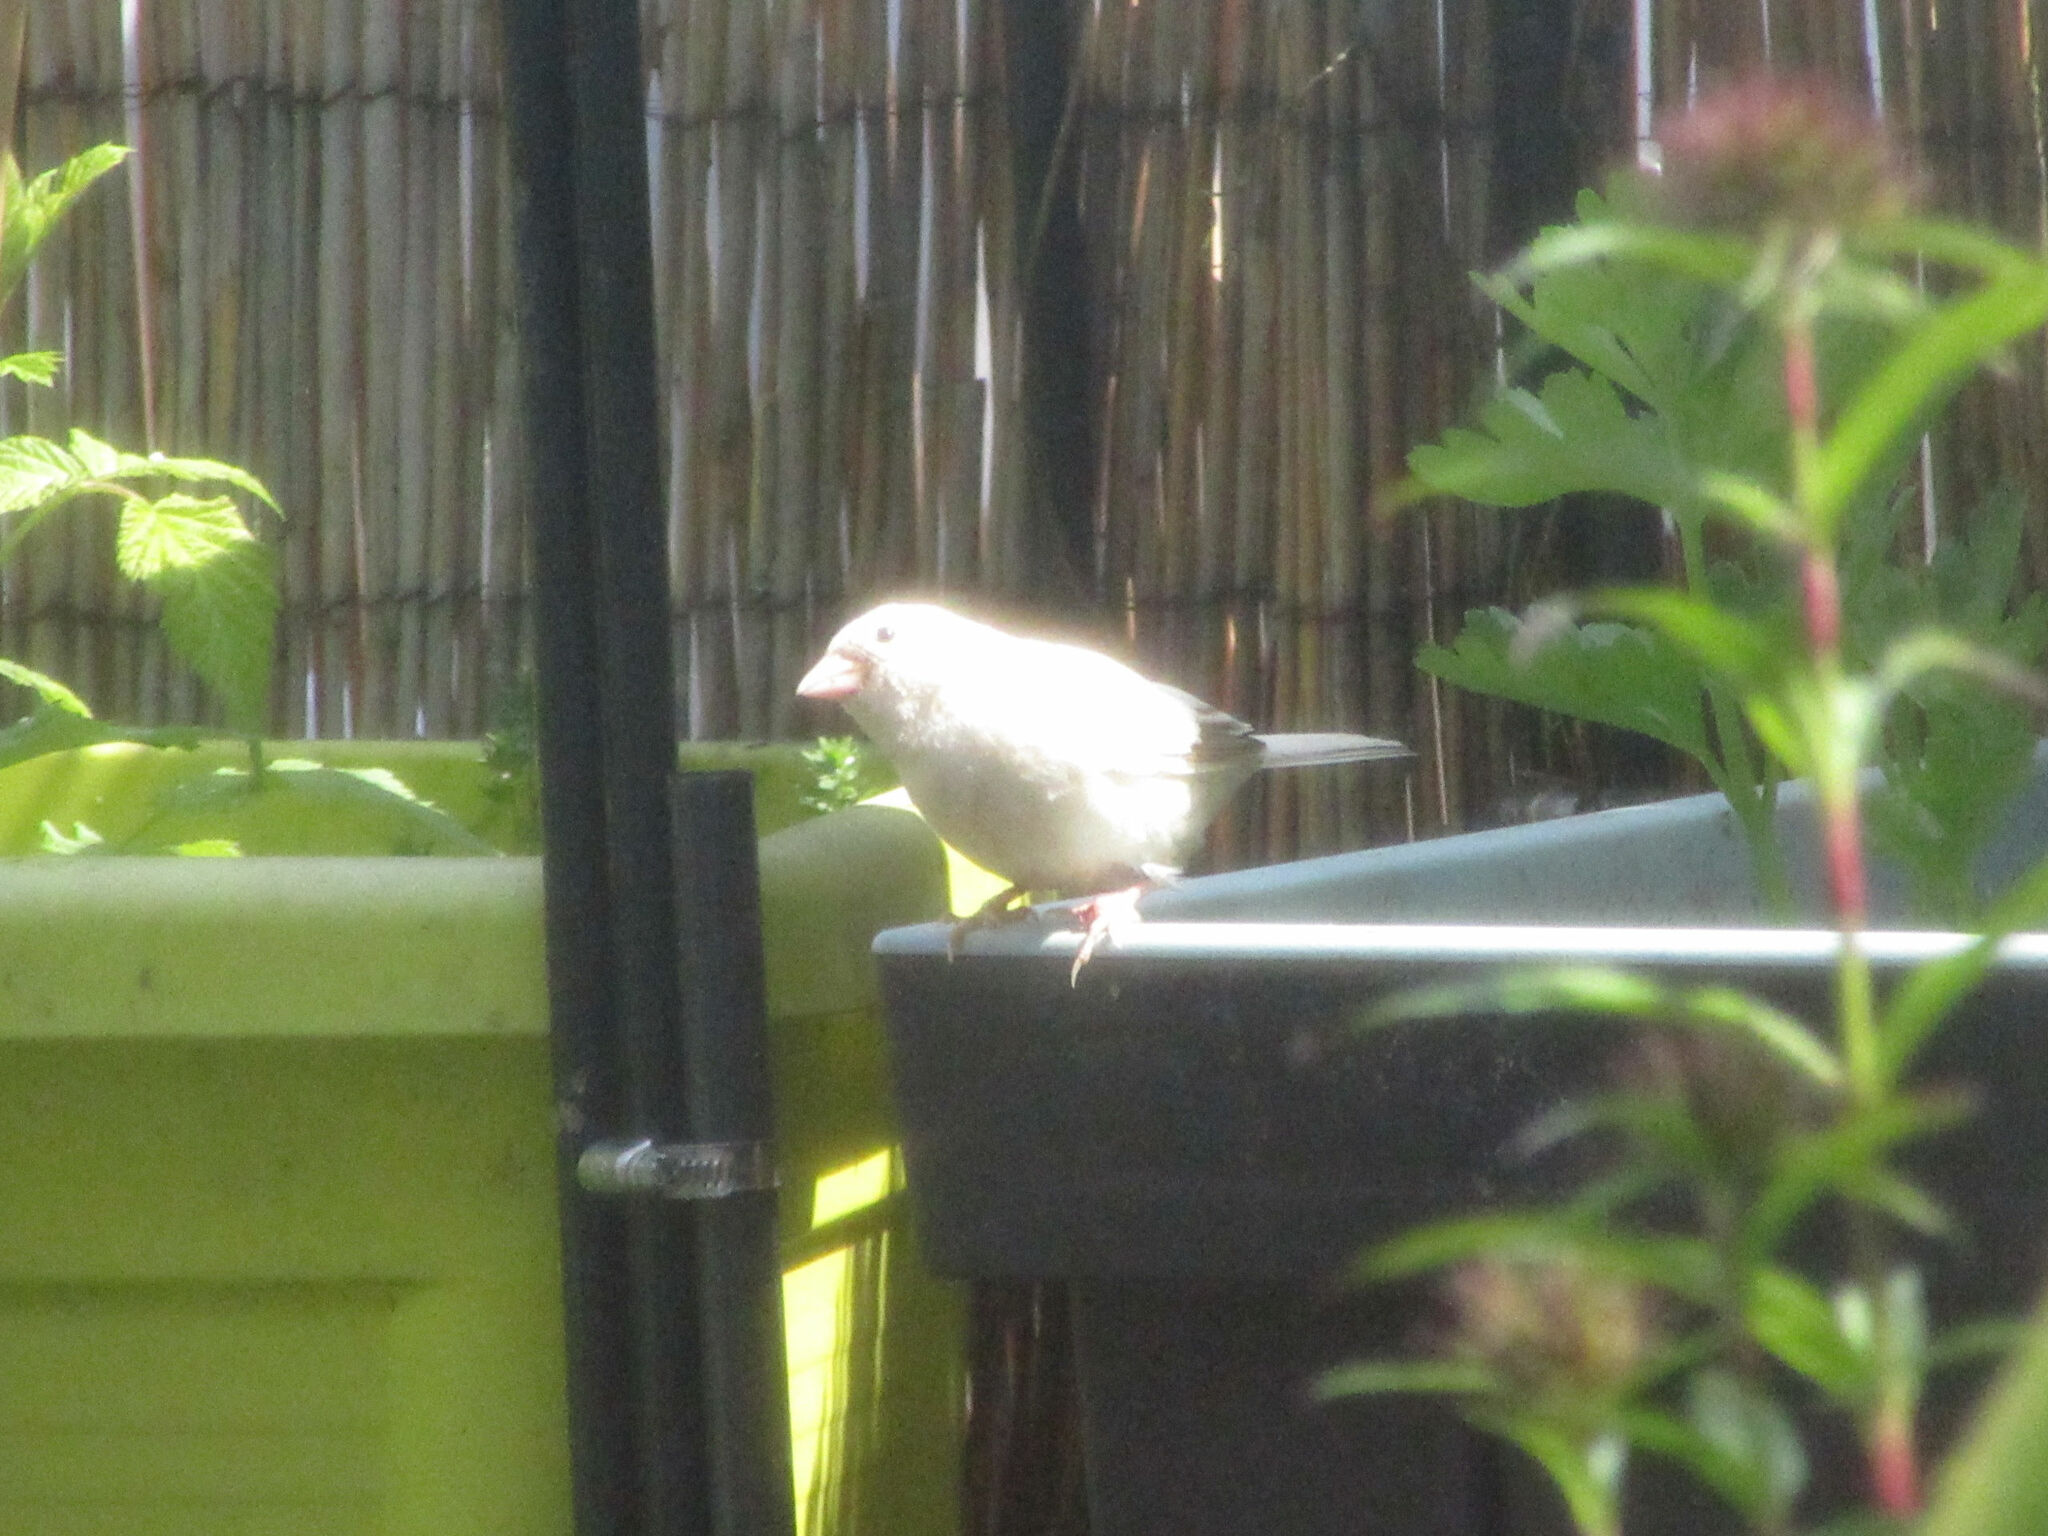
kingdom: Animalia
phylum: Chordata
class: Aves
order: Passeriformes
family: Passeridae
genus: Passer
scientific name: Passer domesticus
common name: House sparrow
